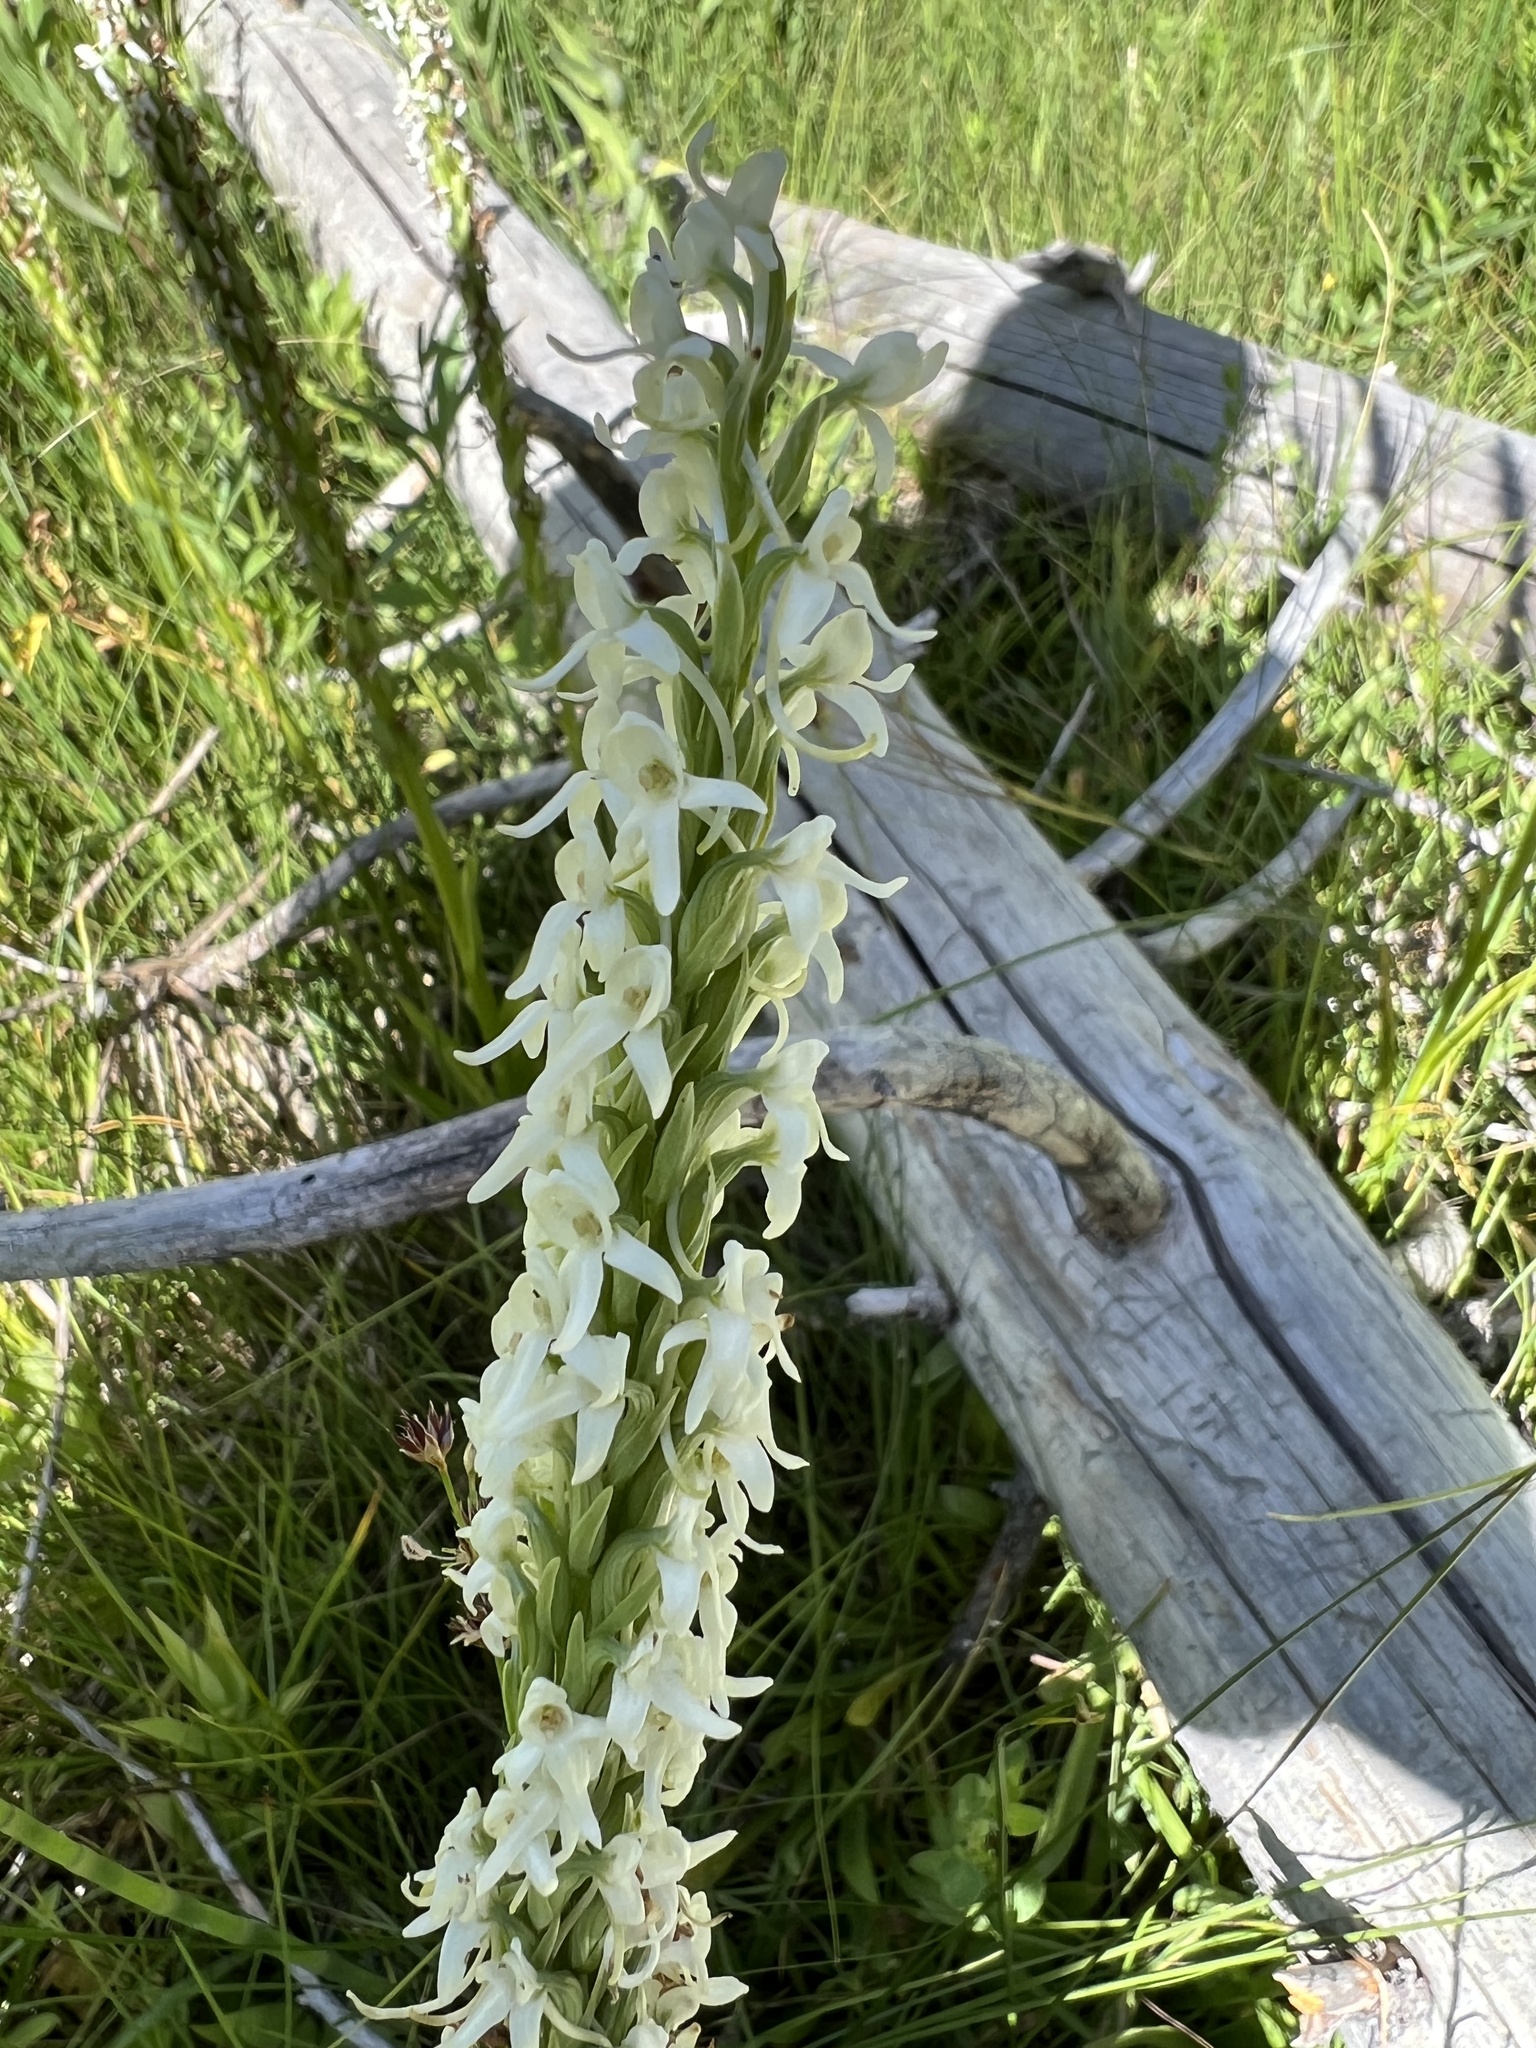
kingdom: Plantae
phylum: Tracheophyta
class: Liliopsida
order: Asparagales
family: Orchidaceae
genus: Platanthera
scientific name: Platanthera dilatata
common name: Bog candles
